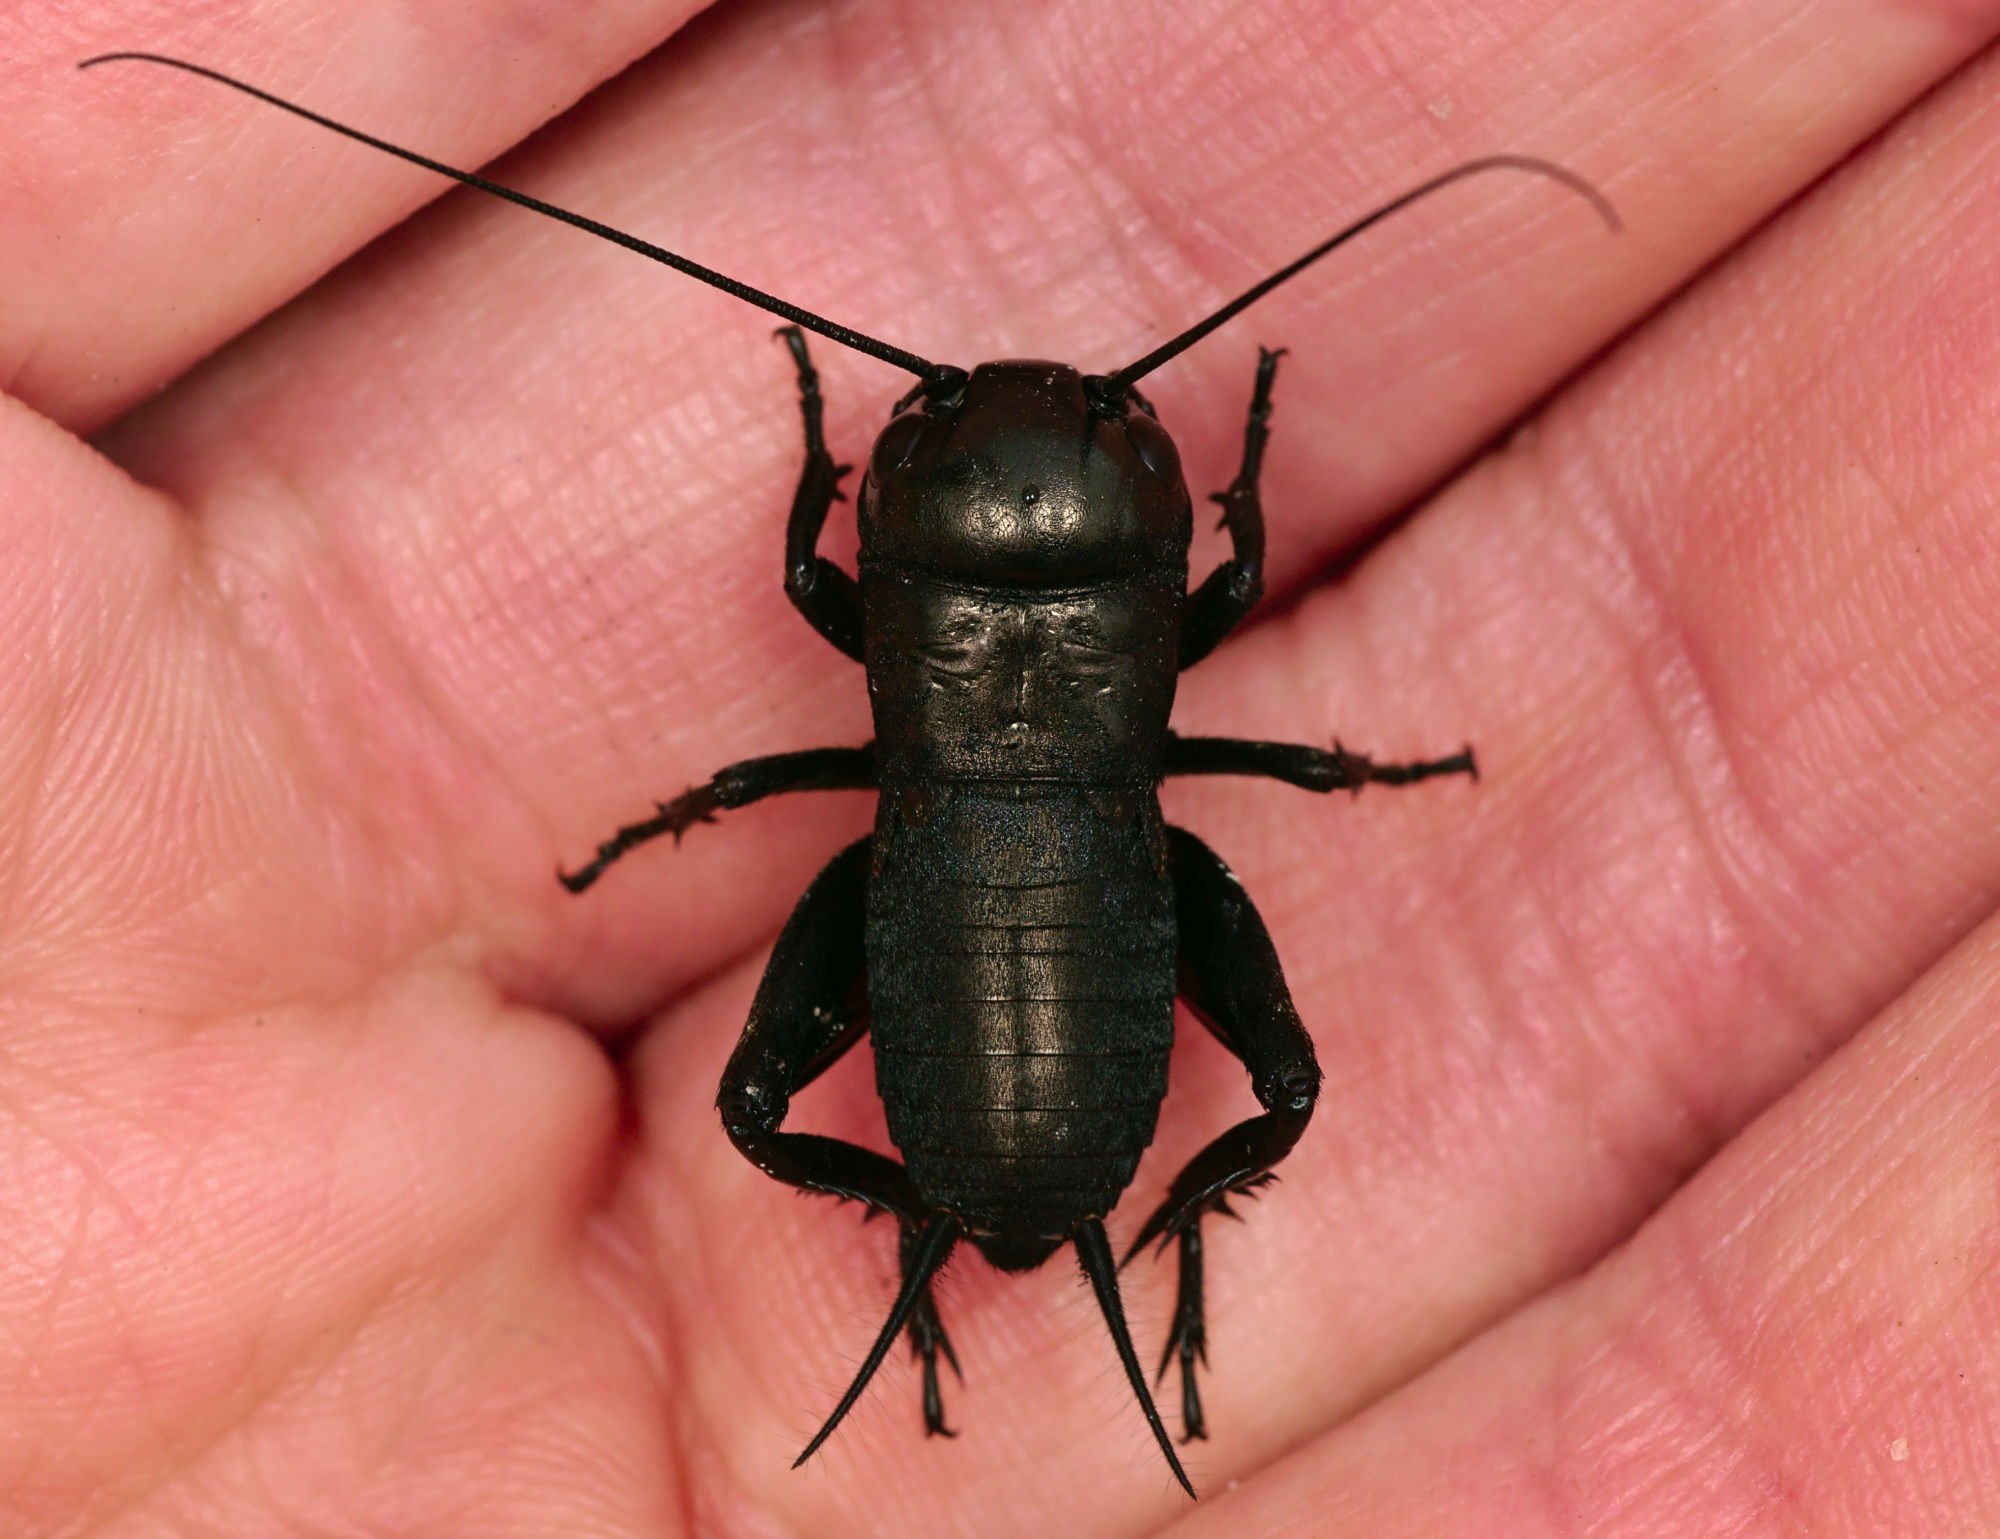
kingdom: Animalia
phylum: Arthropoda
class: Insecta
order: Orthoptera
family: Gryllidae
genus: Gryllus
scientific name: Gryllus campestris
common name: Field cricket
